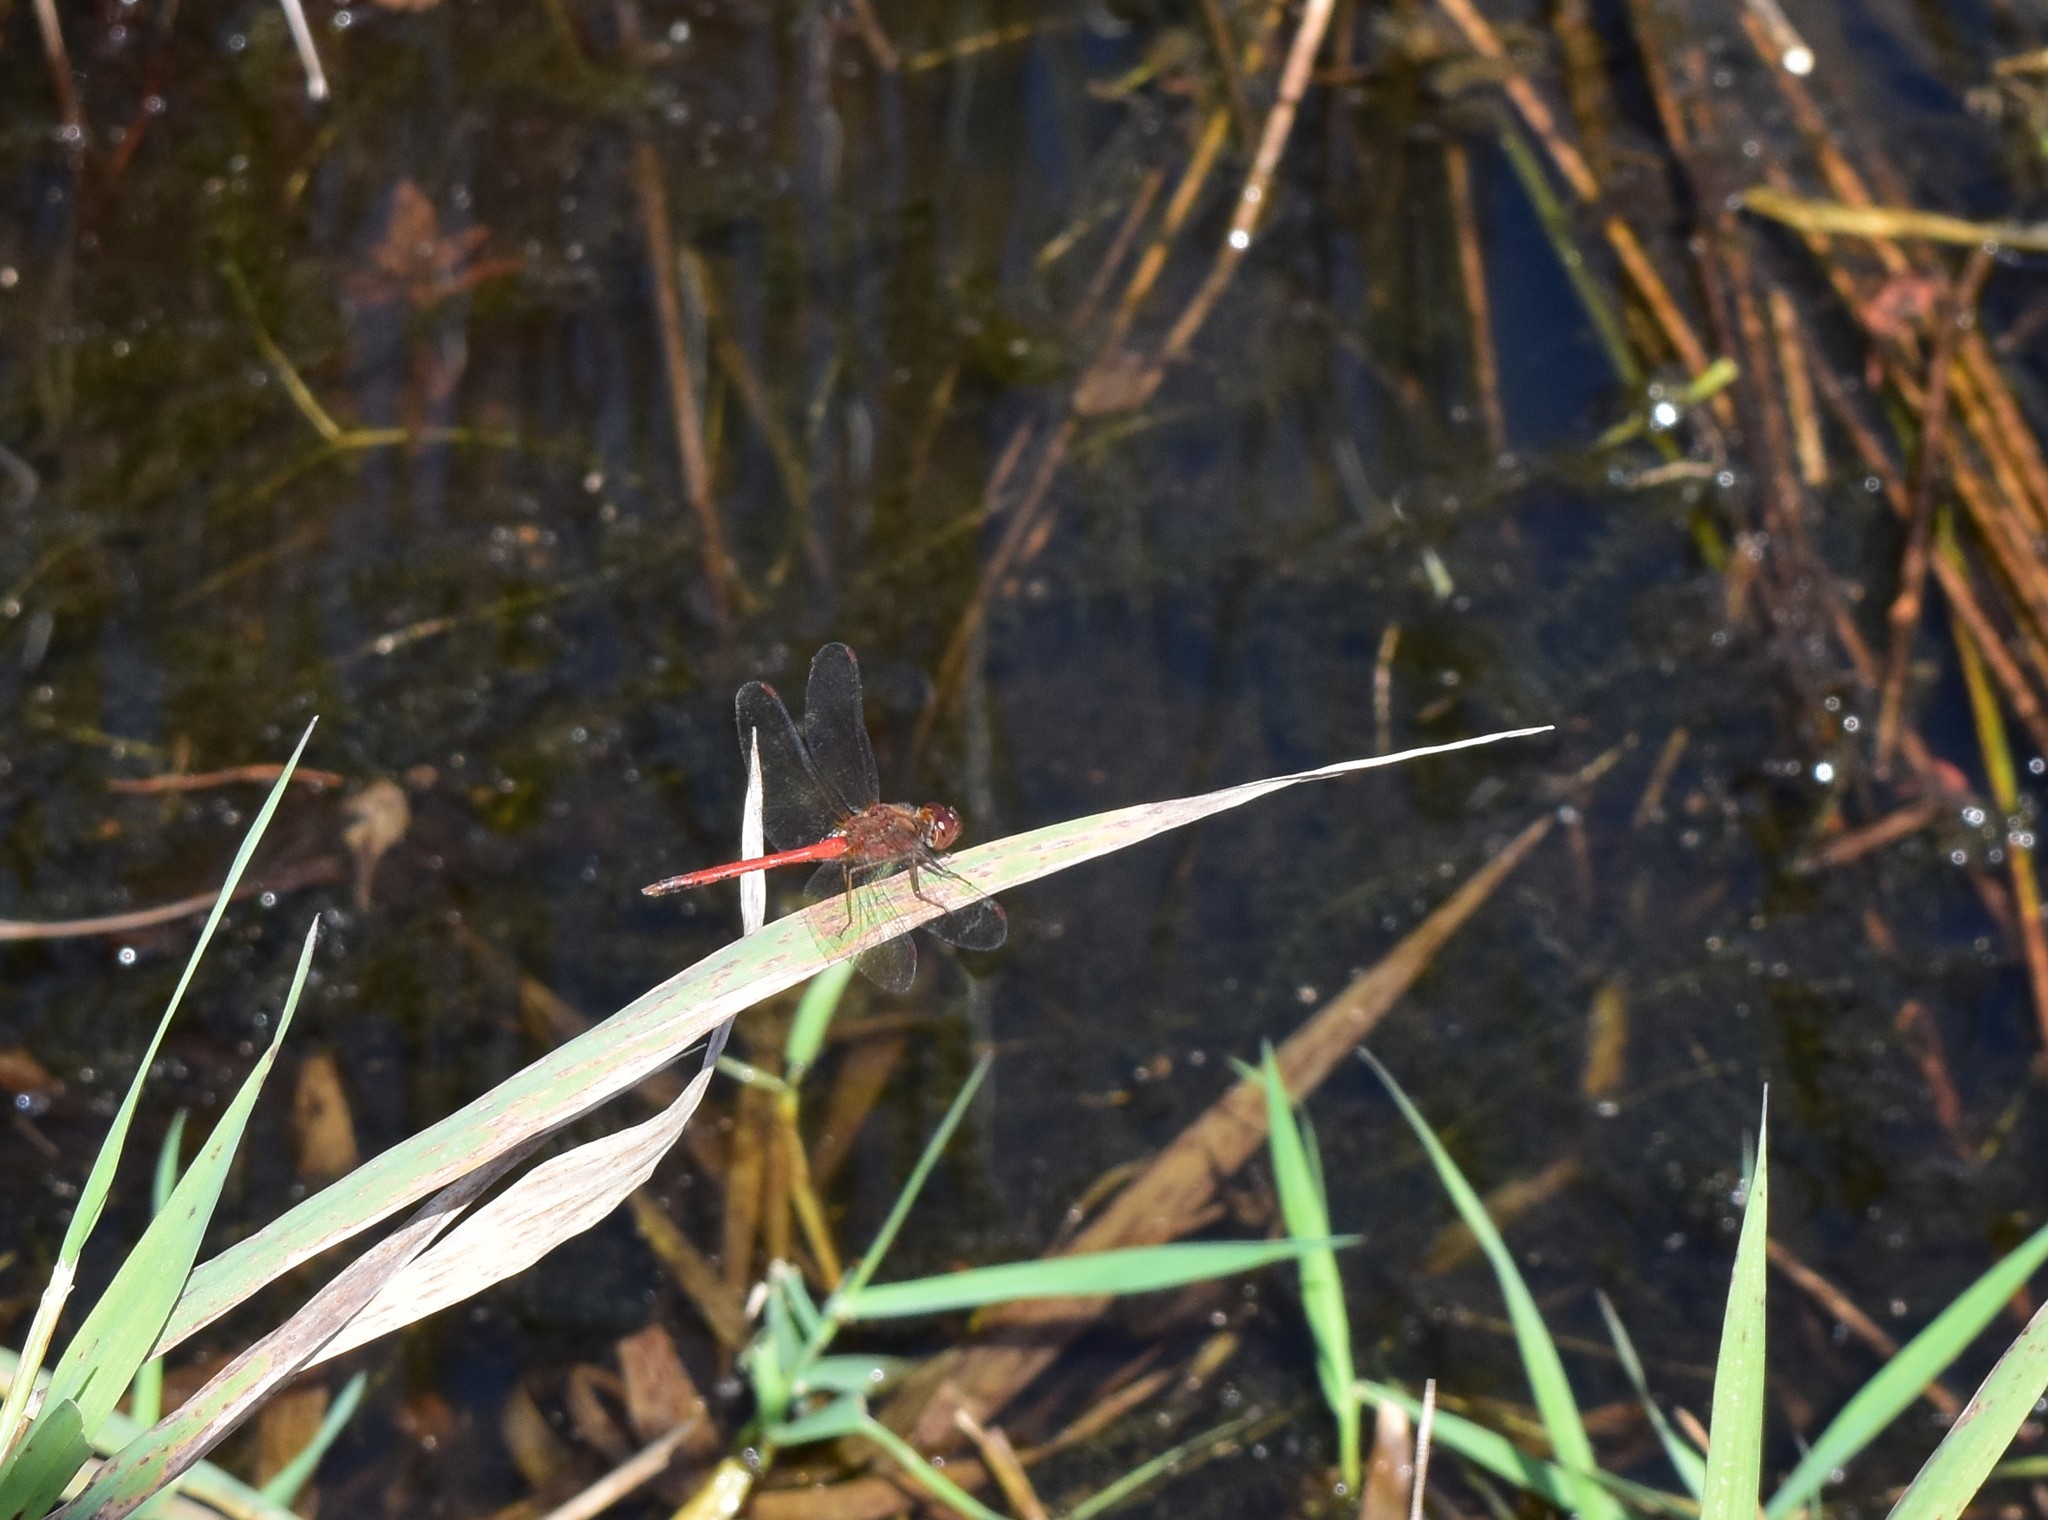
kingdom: Animalia
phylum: Arthropoda
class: Insecta
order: Odonata
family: Libellulidae
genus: Sympetrum
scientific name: Sympetrum vicinum
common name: Autumn meadowhawk
